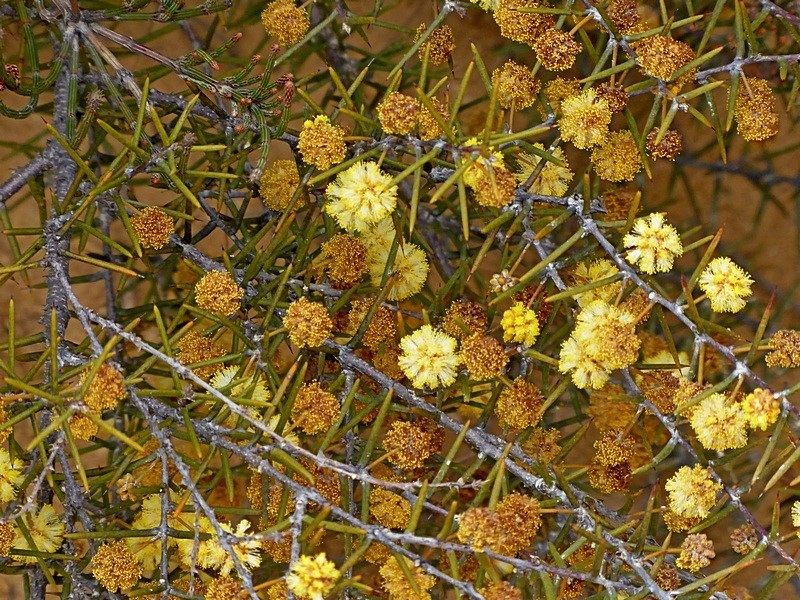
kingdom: Plantae
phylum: Tracheophyta
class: Magnoliopsida
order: Fabales
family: Fabaceae
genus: Acacia
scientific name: Acacia ulicifolia
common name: Juniper wattle
